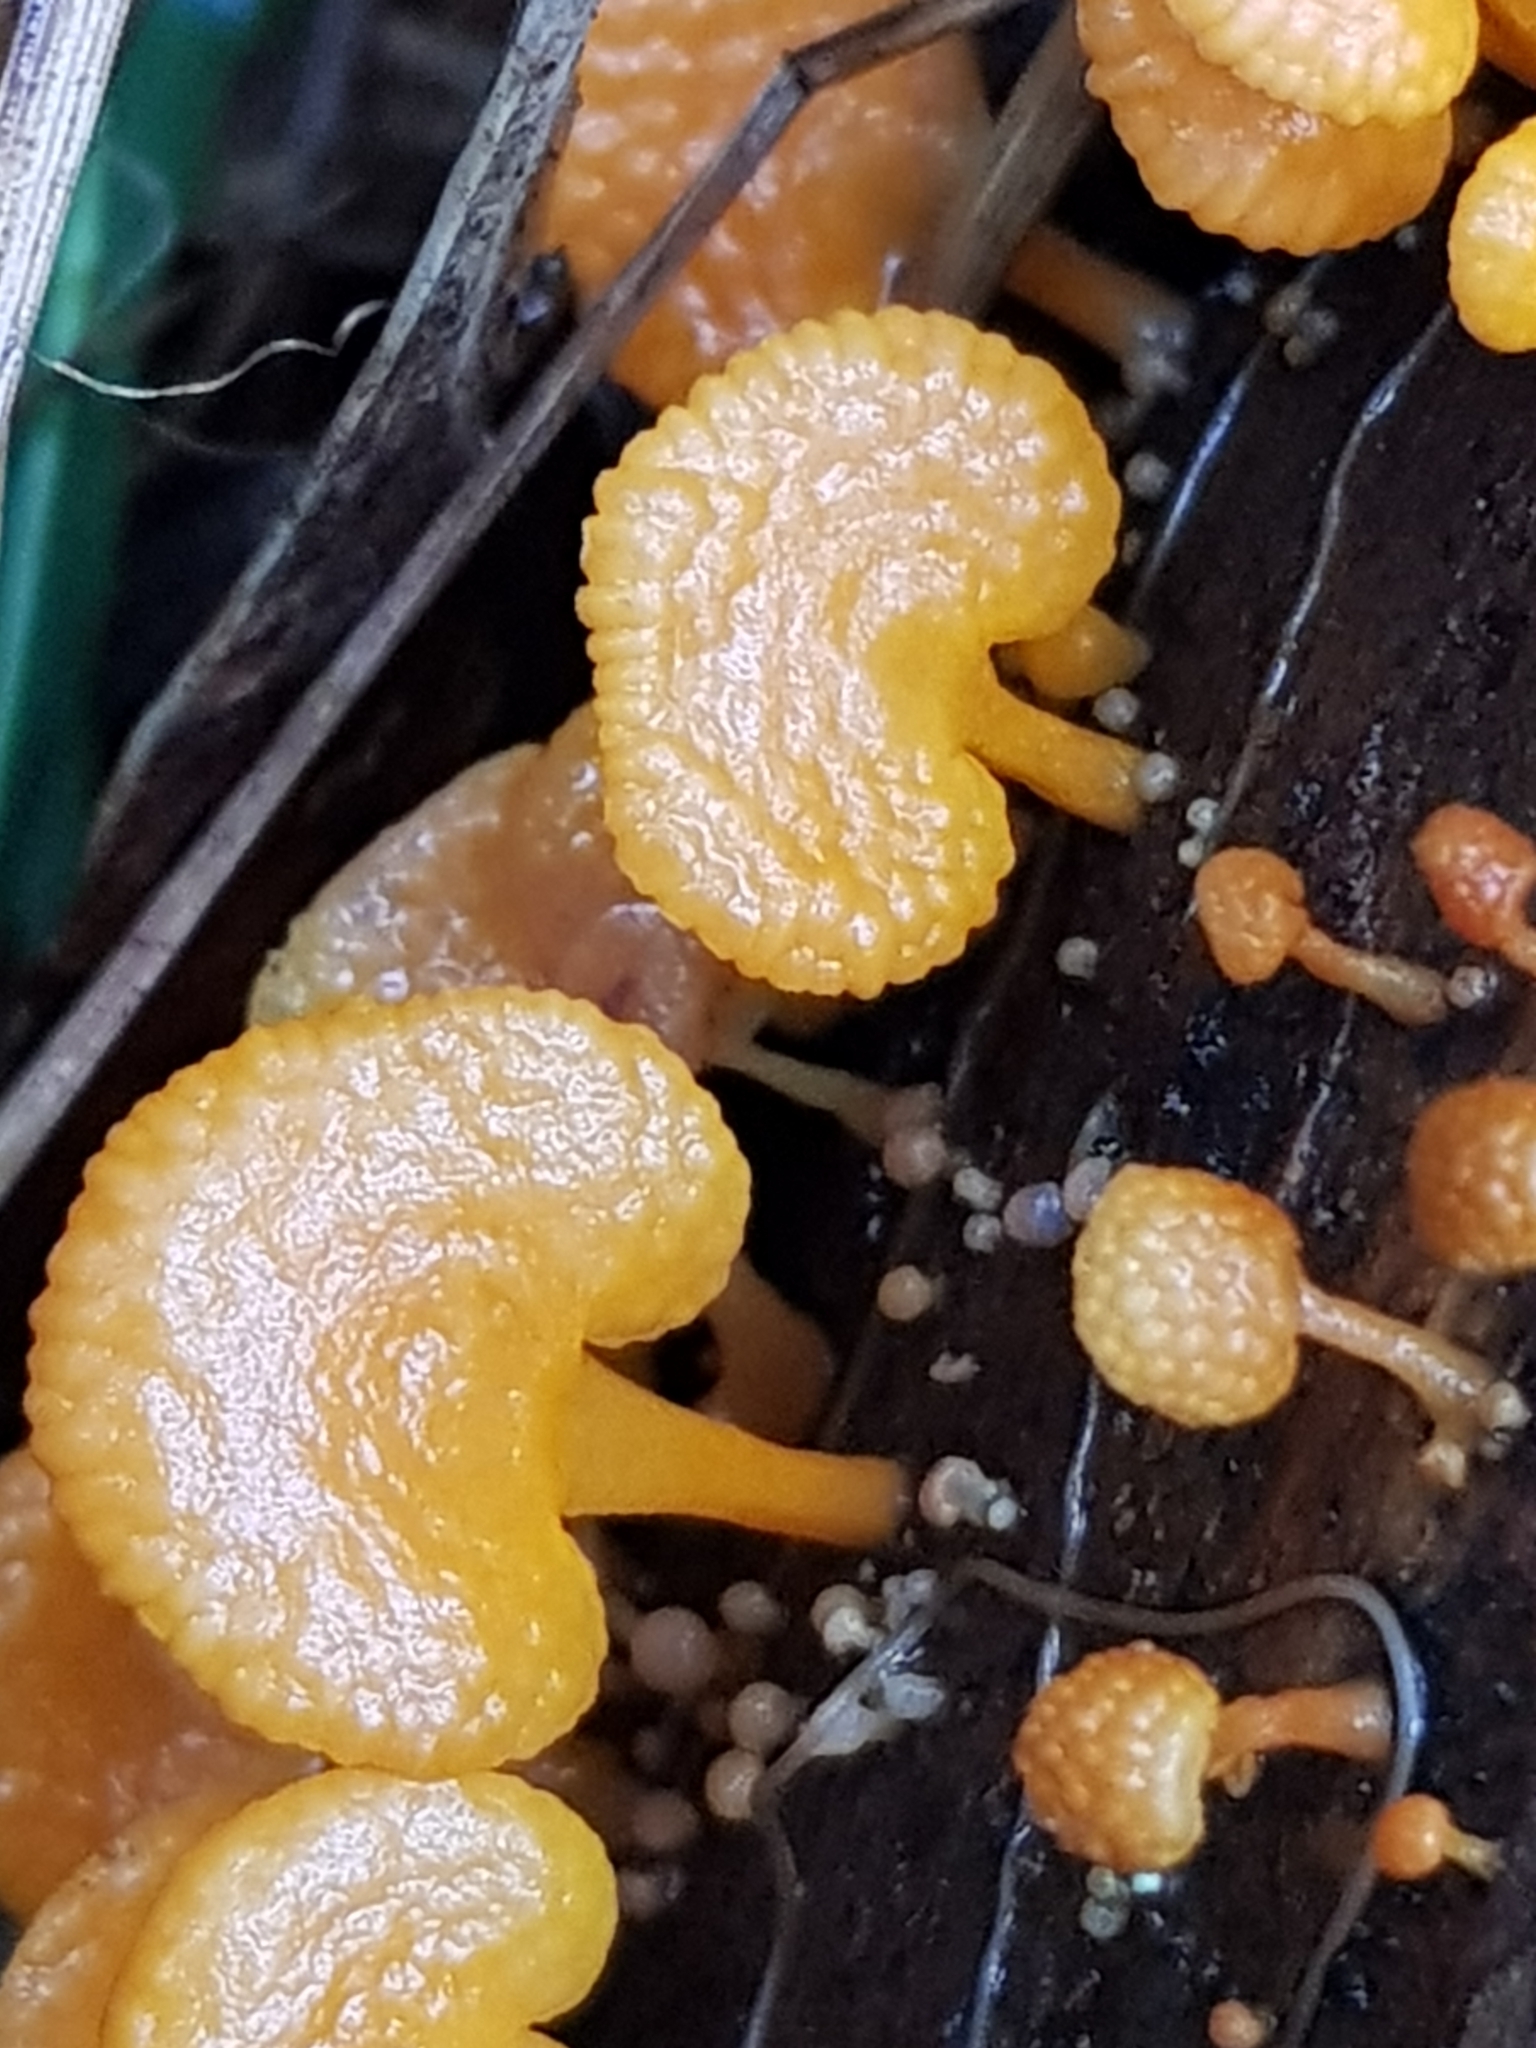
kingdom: Fungi
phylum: Basidiomycota
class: Agaricomycetes
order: Agaricales
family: Mycenaceae
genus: Favolaschia
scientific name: Favolaschia claudopus
